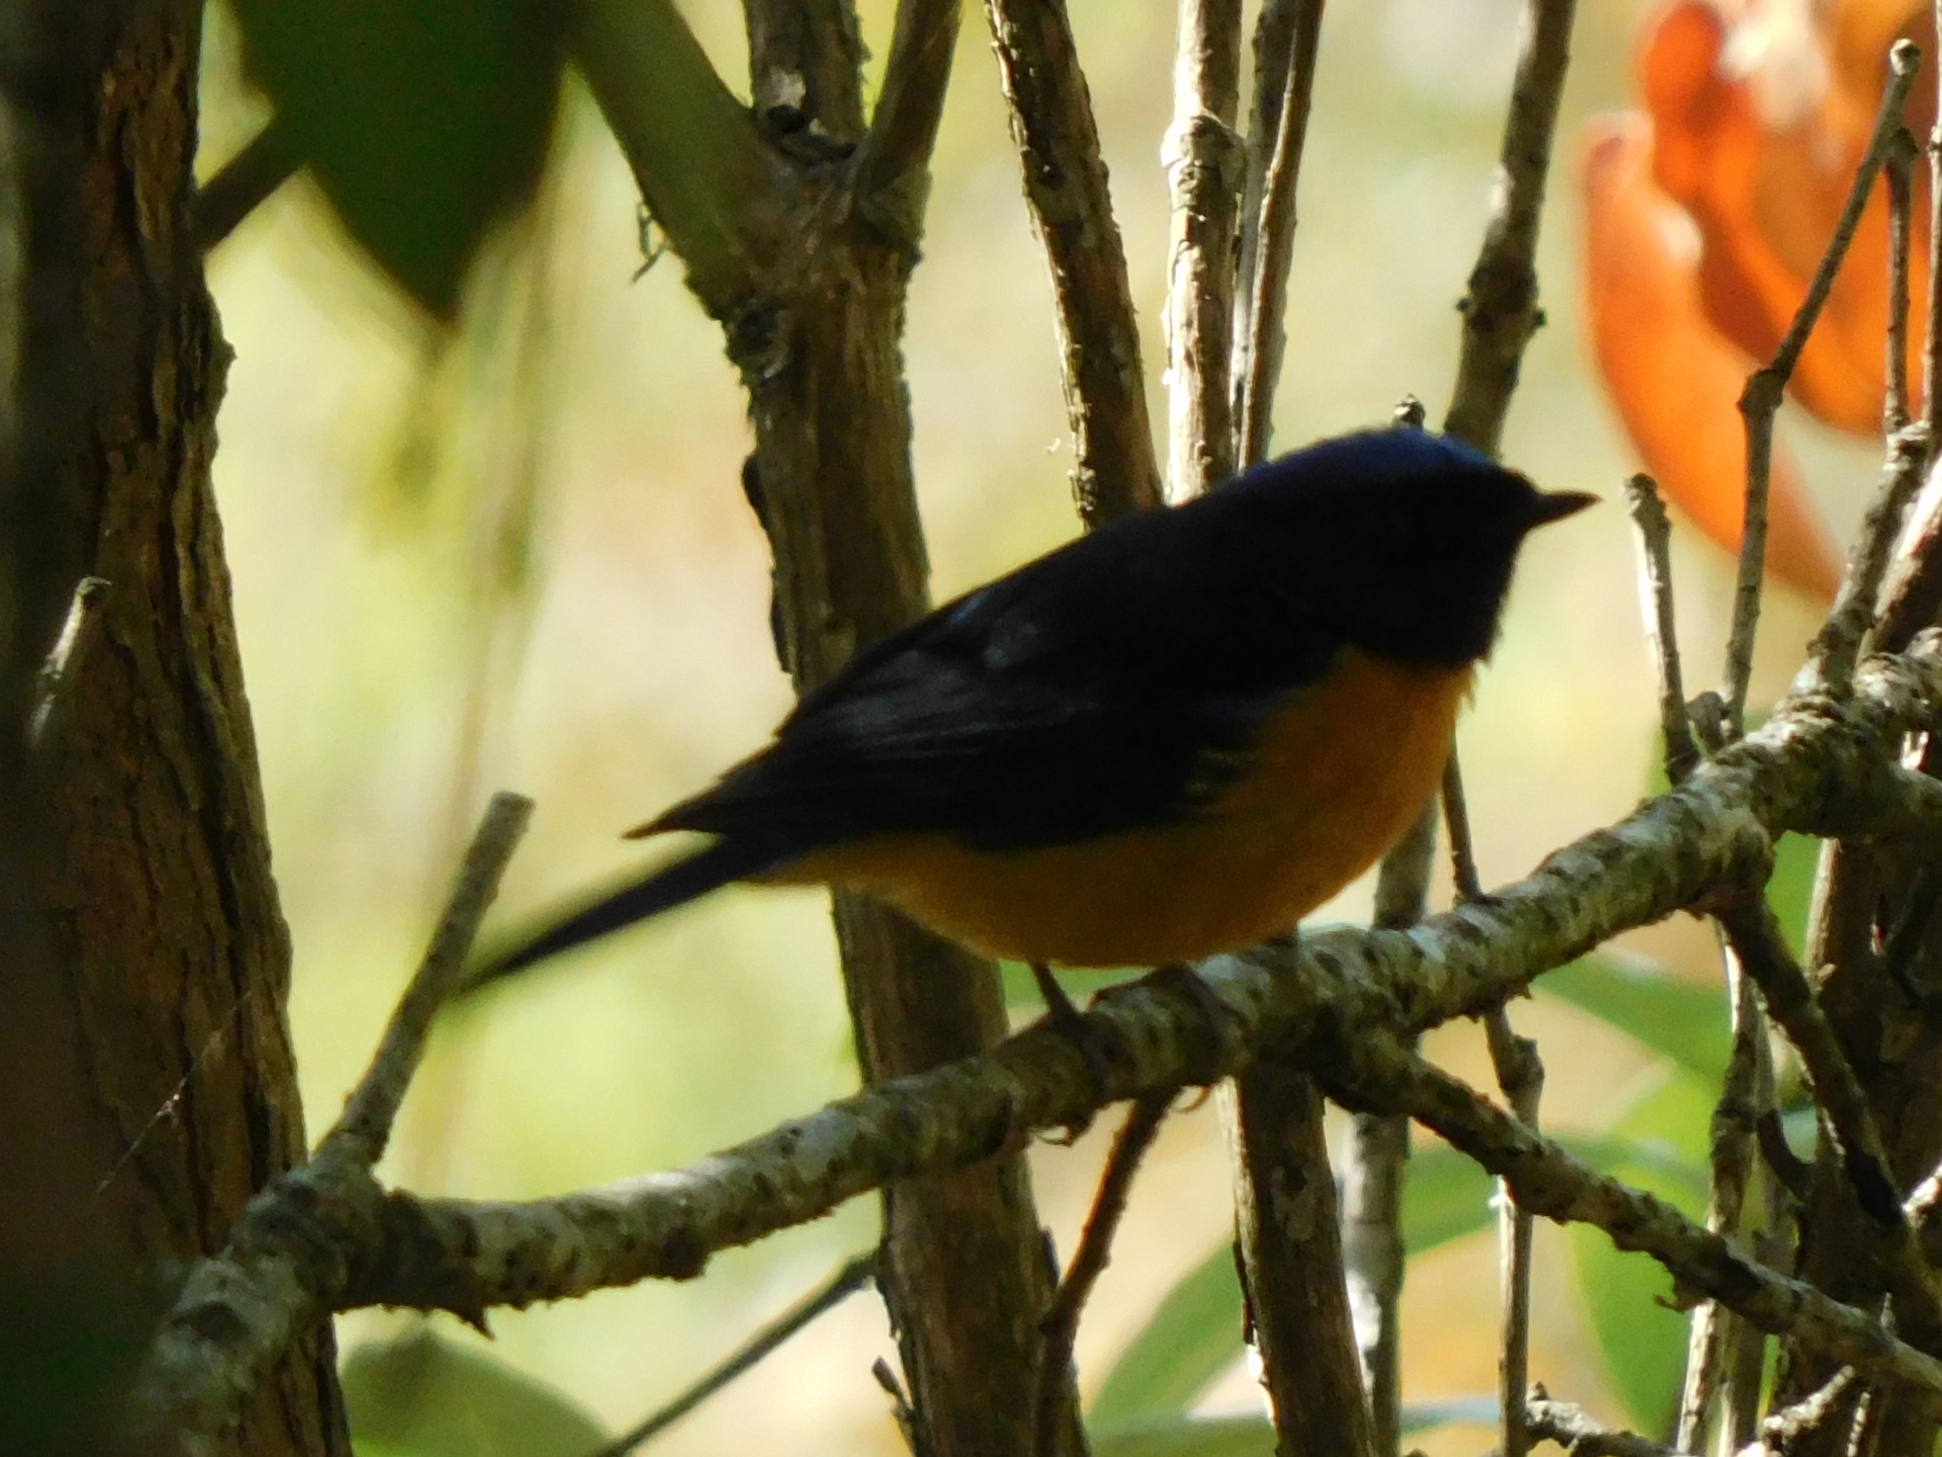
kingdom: Animalia
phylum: Chordata
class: Aves
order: Passeriformes
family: Muscicapidae
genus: Phoenicurus
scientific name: Phoenicurus frontalis
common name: Blue-fronted redstart
